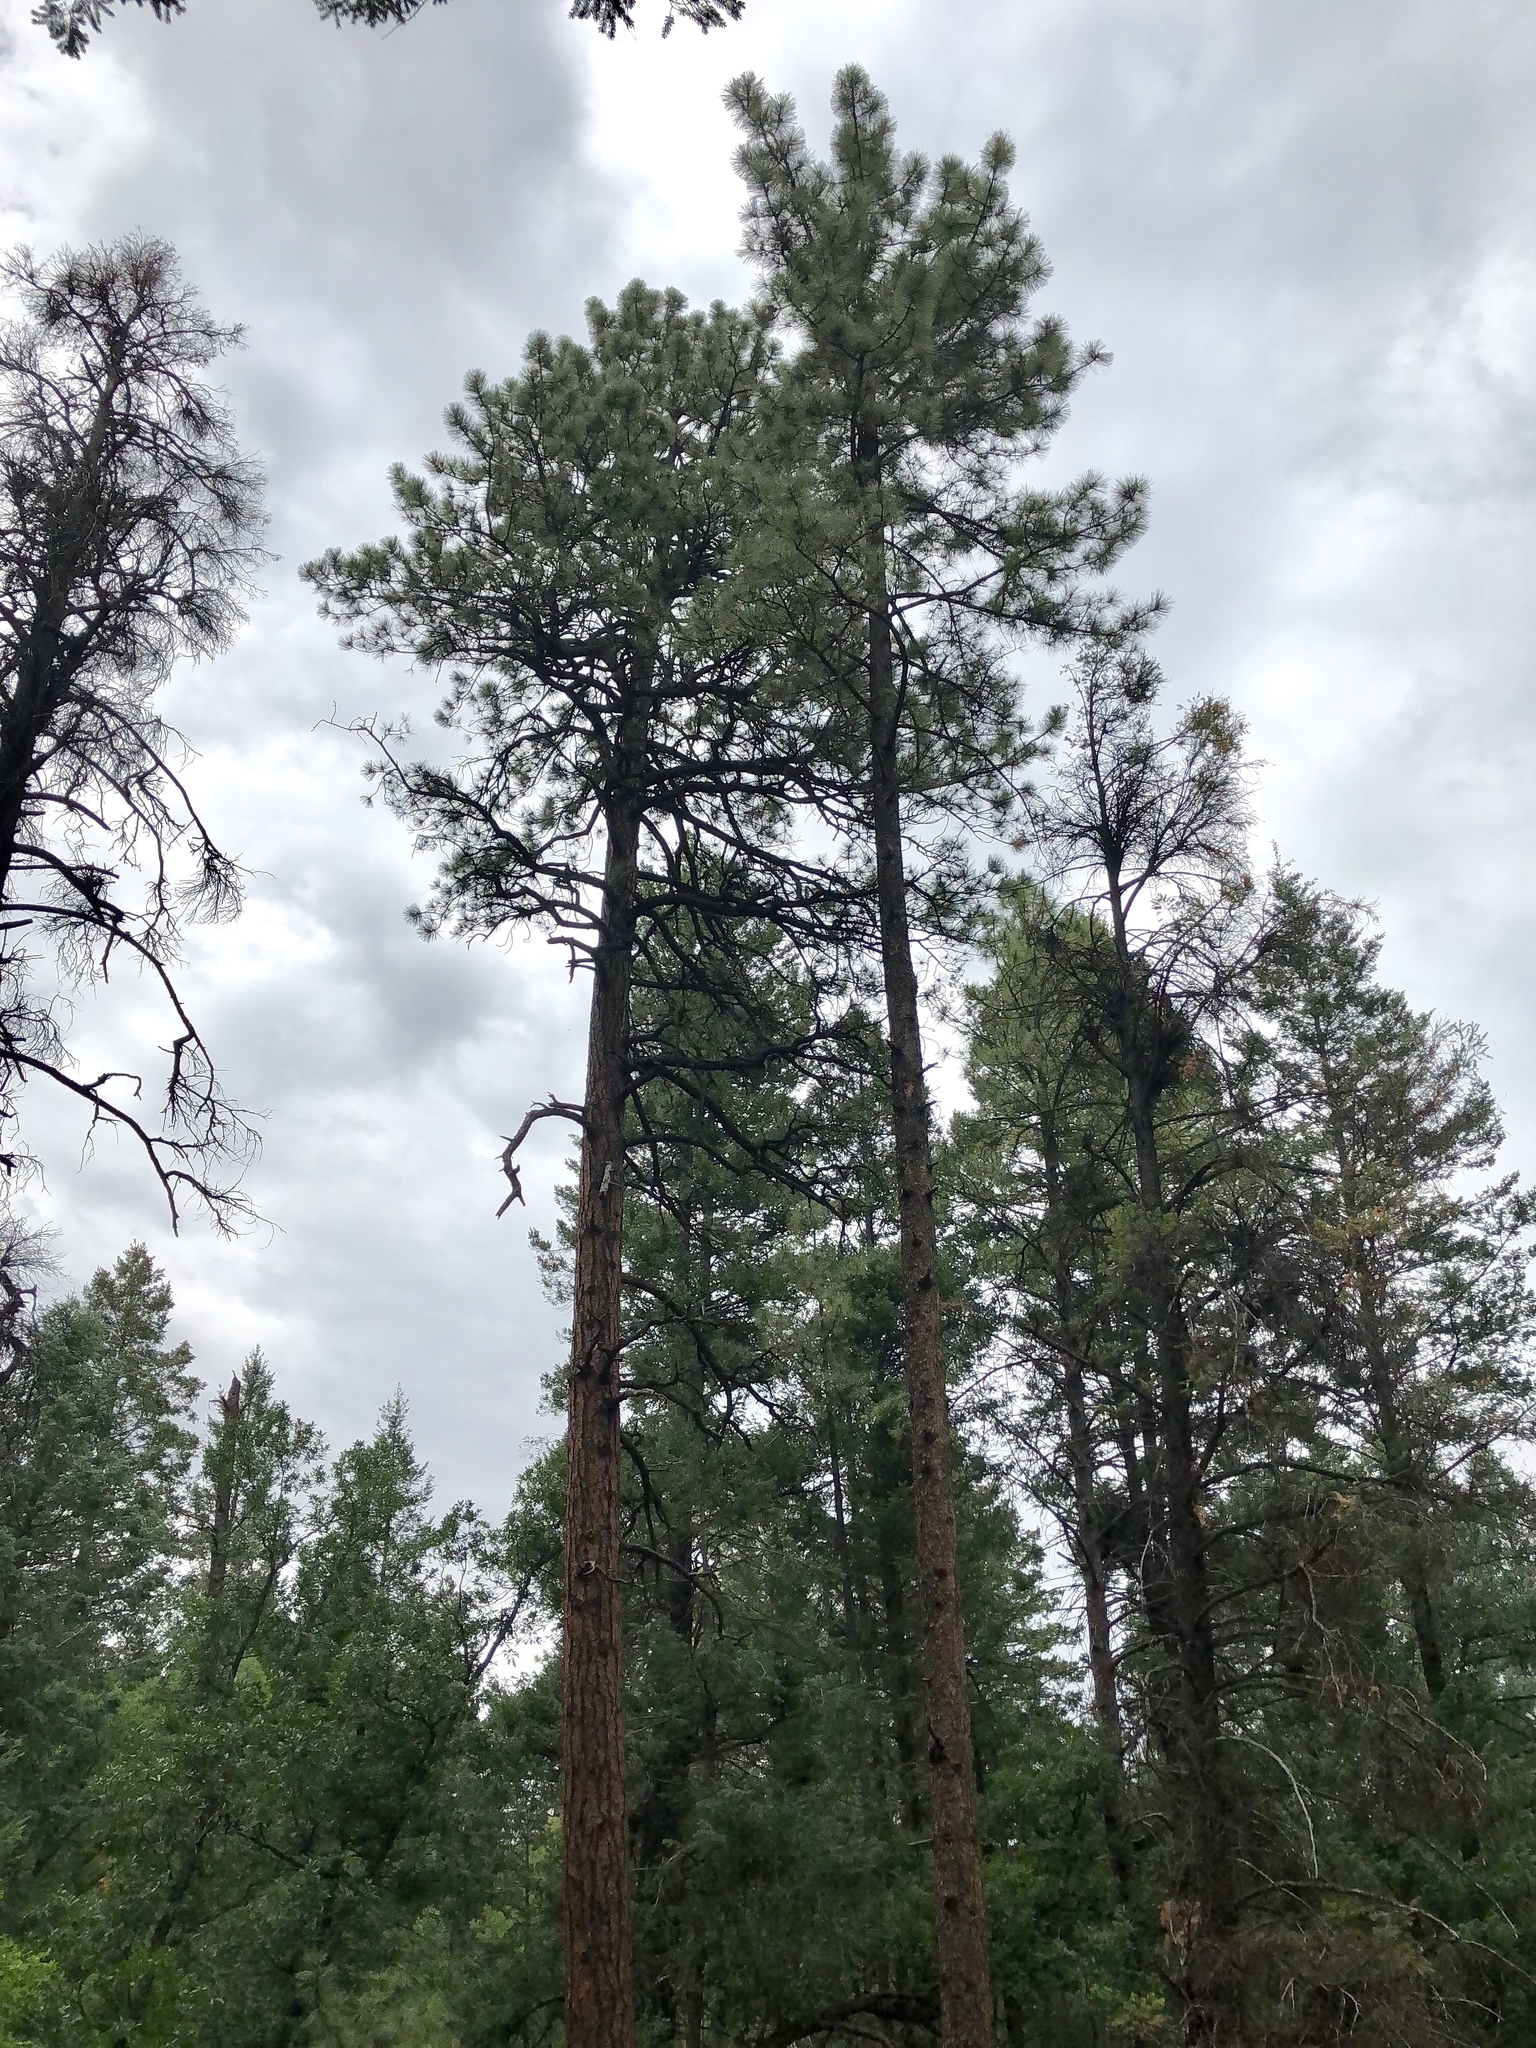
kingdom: Plantae
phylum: Tracheophyta
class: Pinopsida
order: Pinales
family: Pinaceae
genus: Pinus
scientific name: Pinus ponderosa
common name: Western yellow-pine
